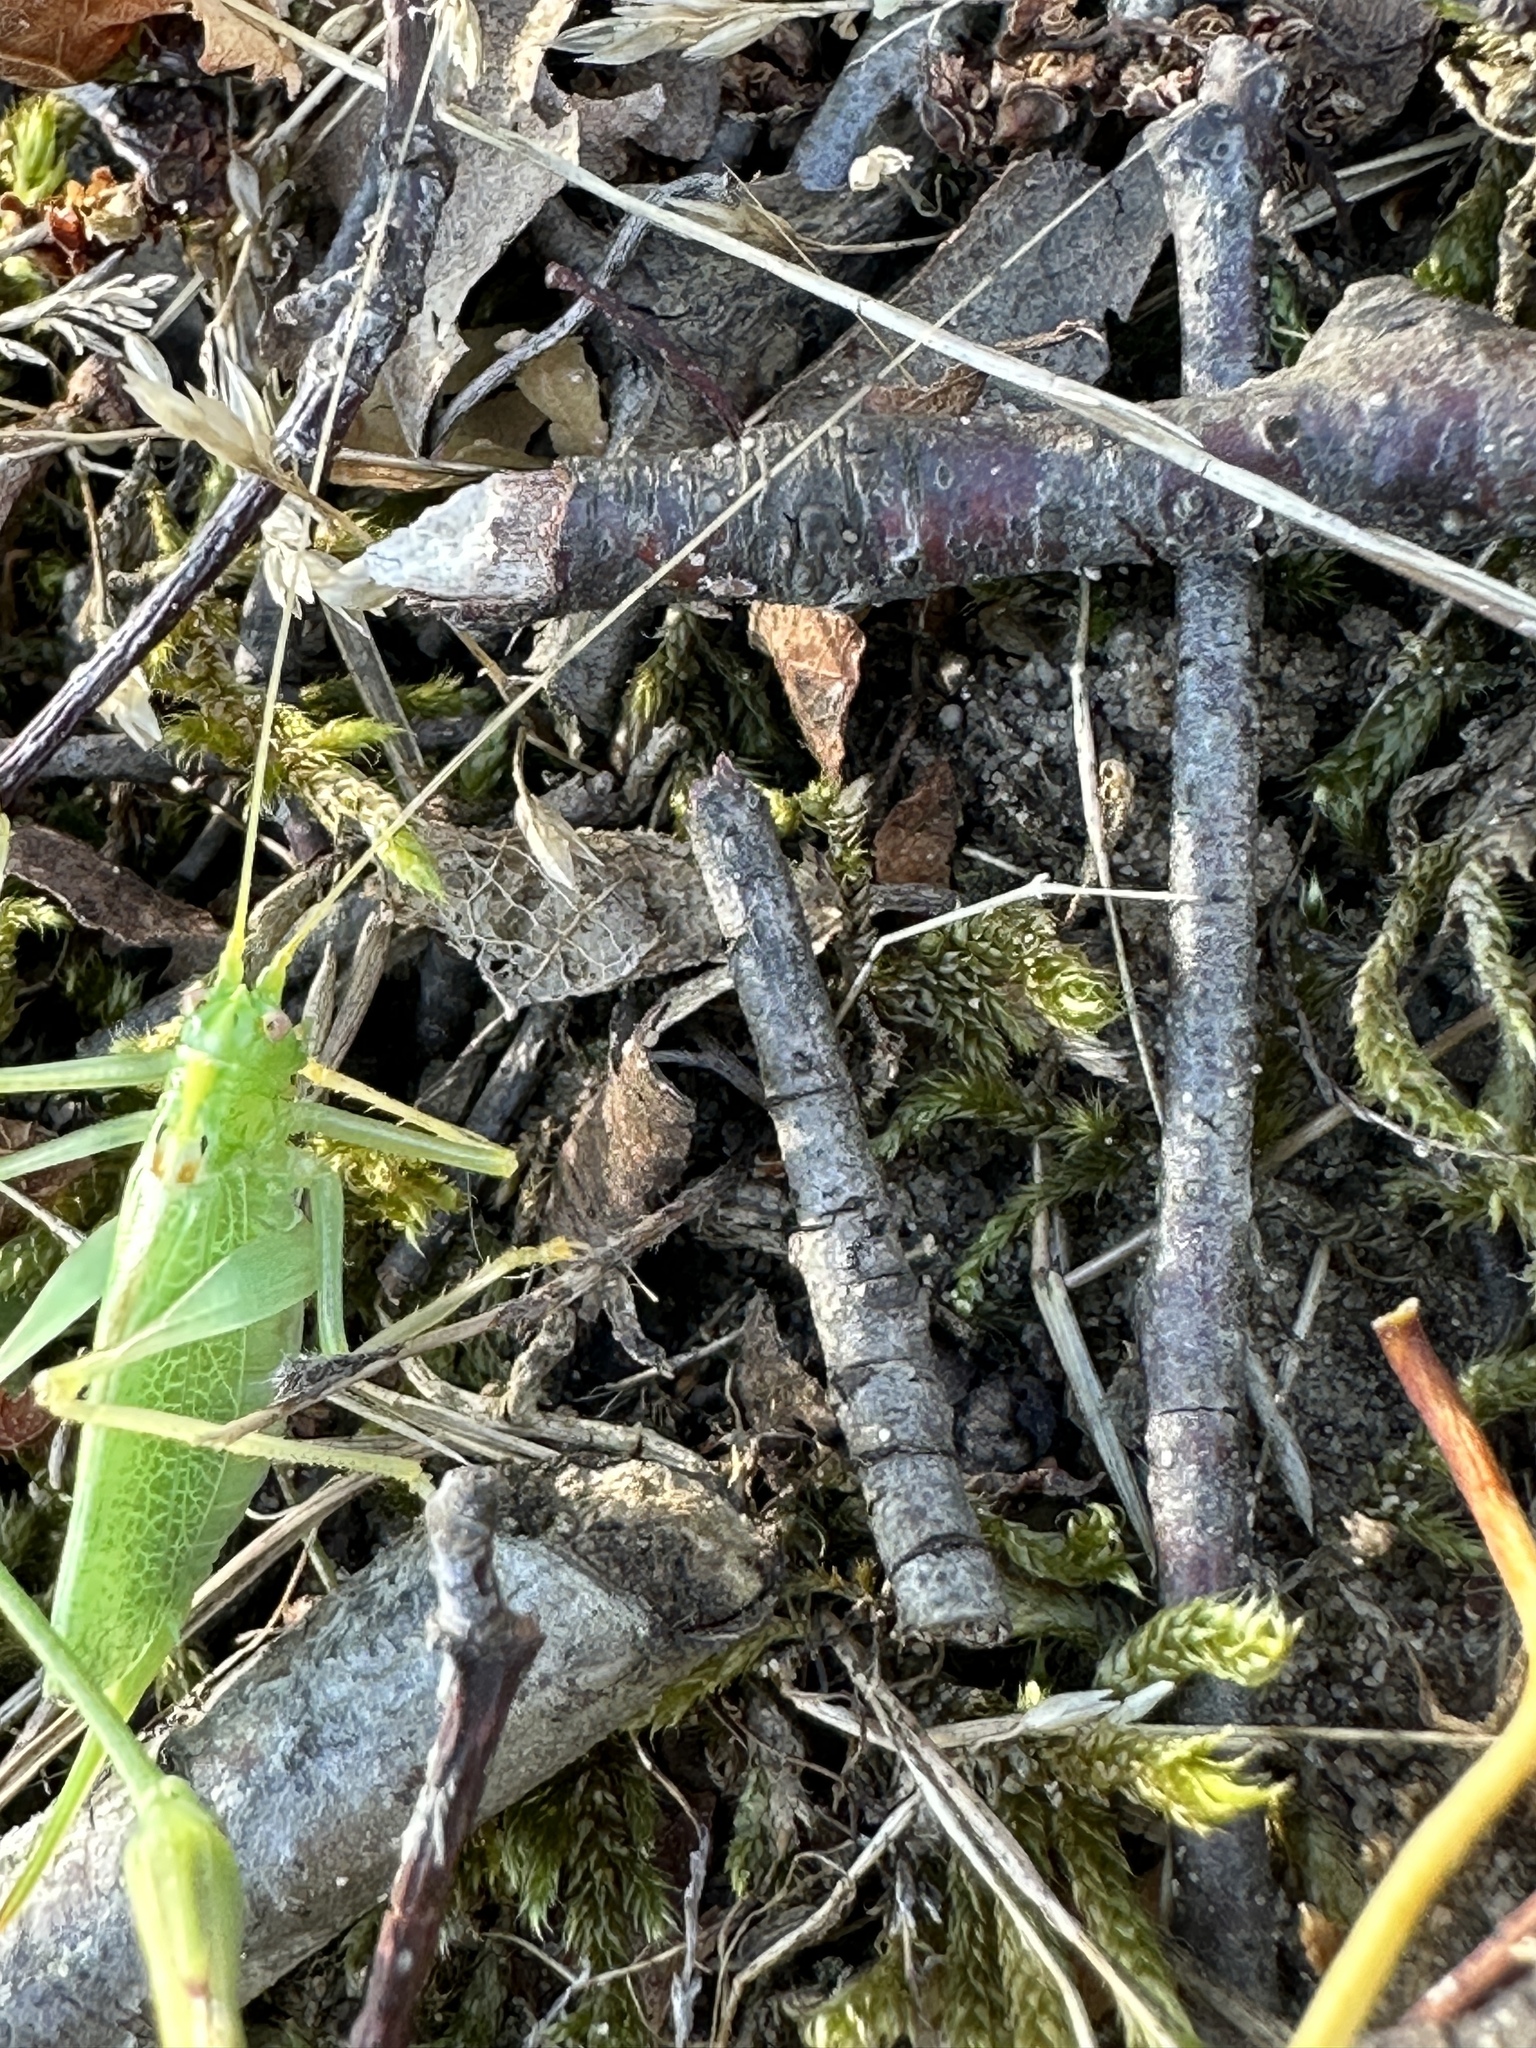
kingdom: Animalia
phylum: Arthropoda
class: Insecta
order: Orthoptera
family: Tettigoniidae
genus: Meconema
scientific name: Meconema thalassinum
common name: Oak bush-cricket
